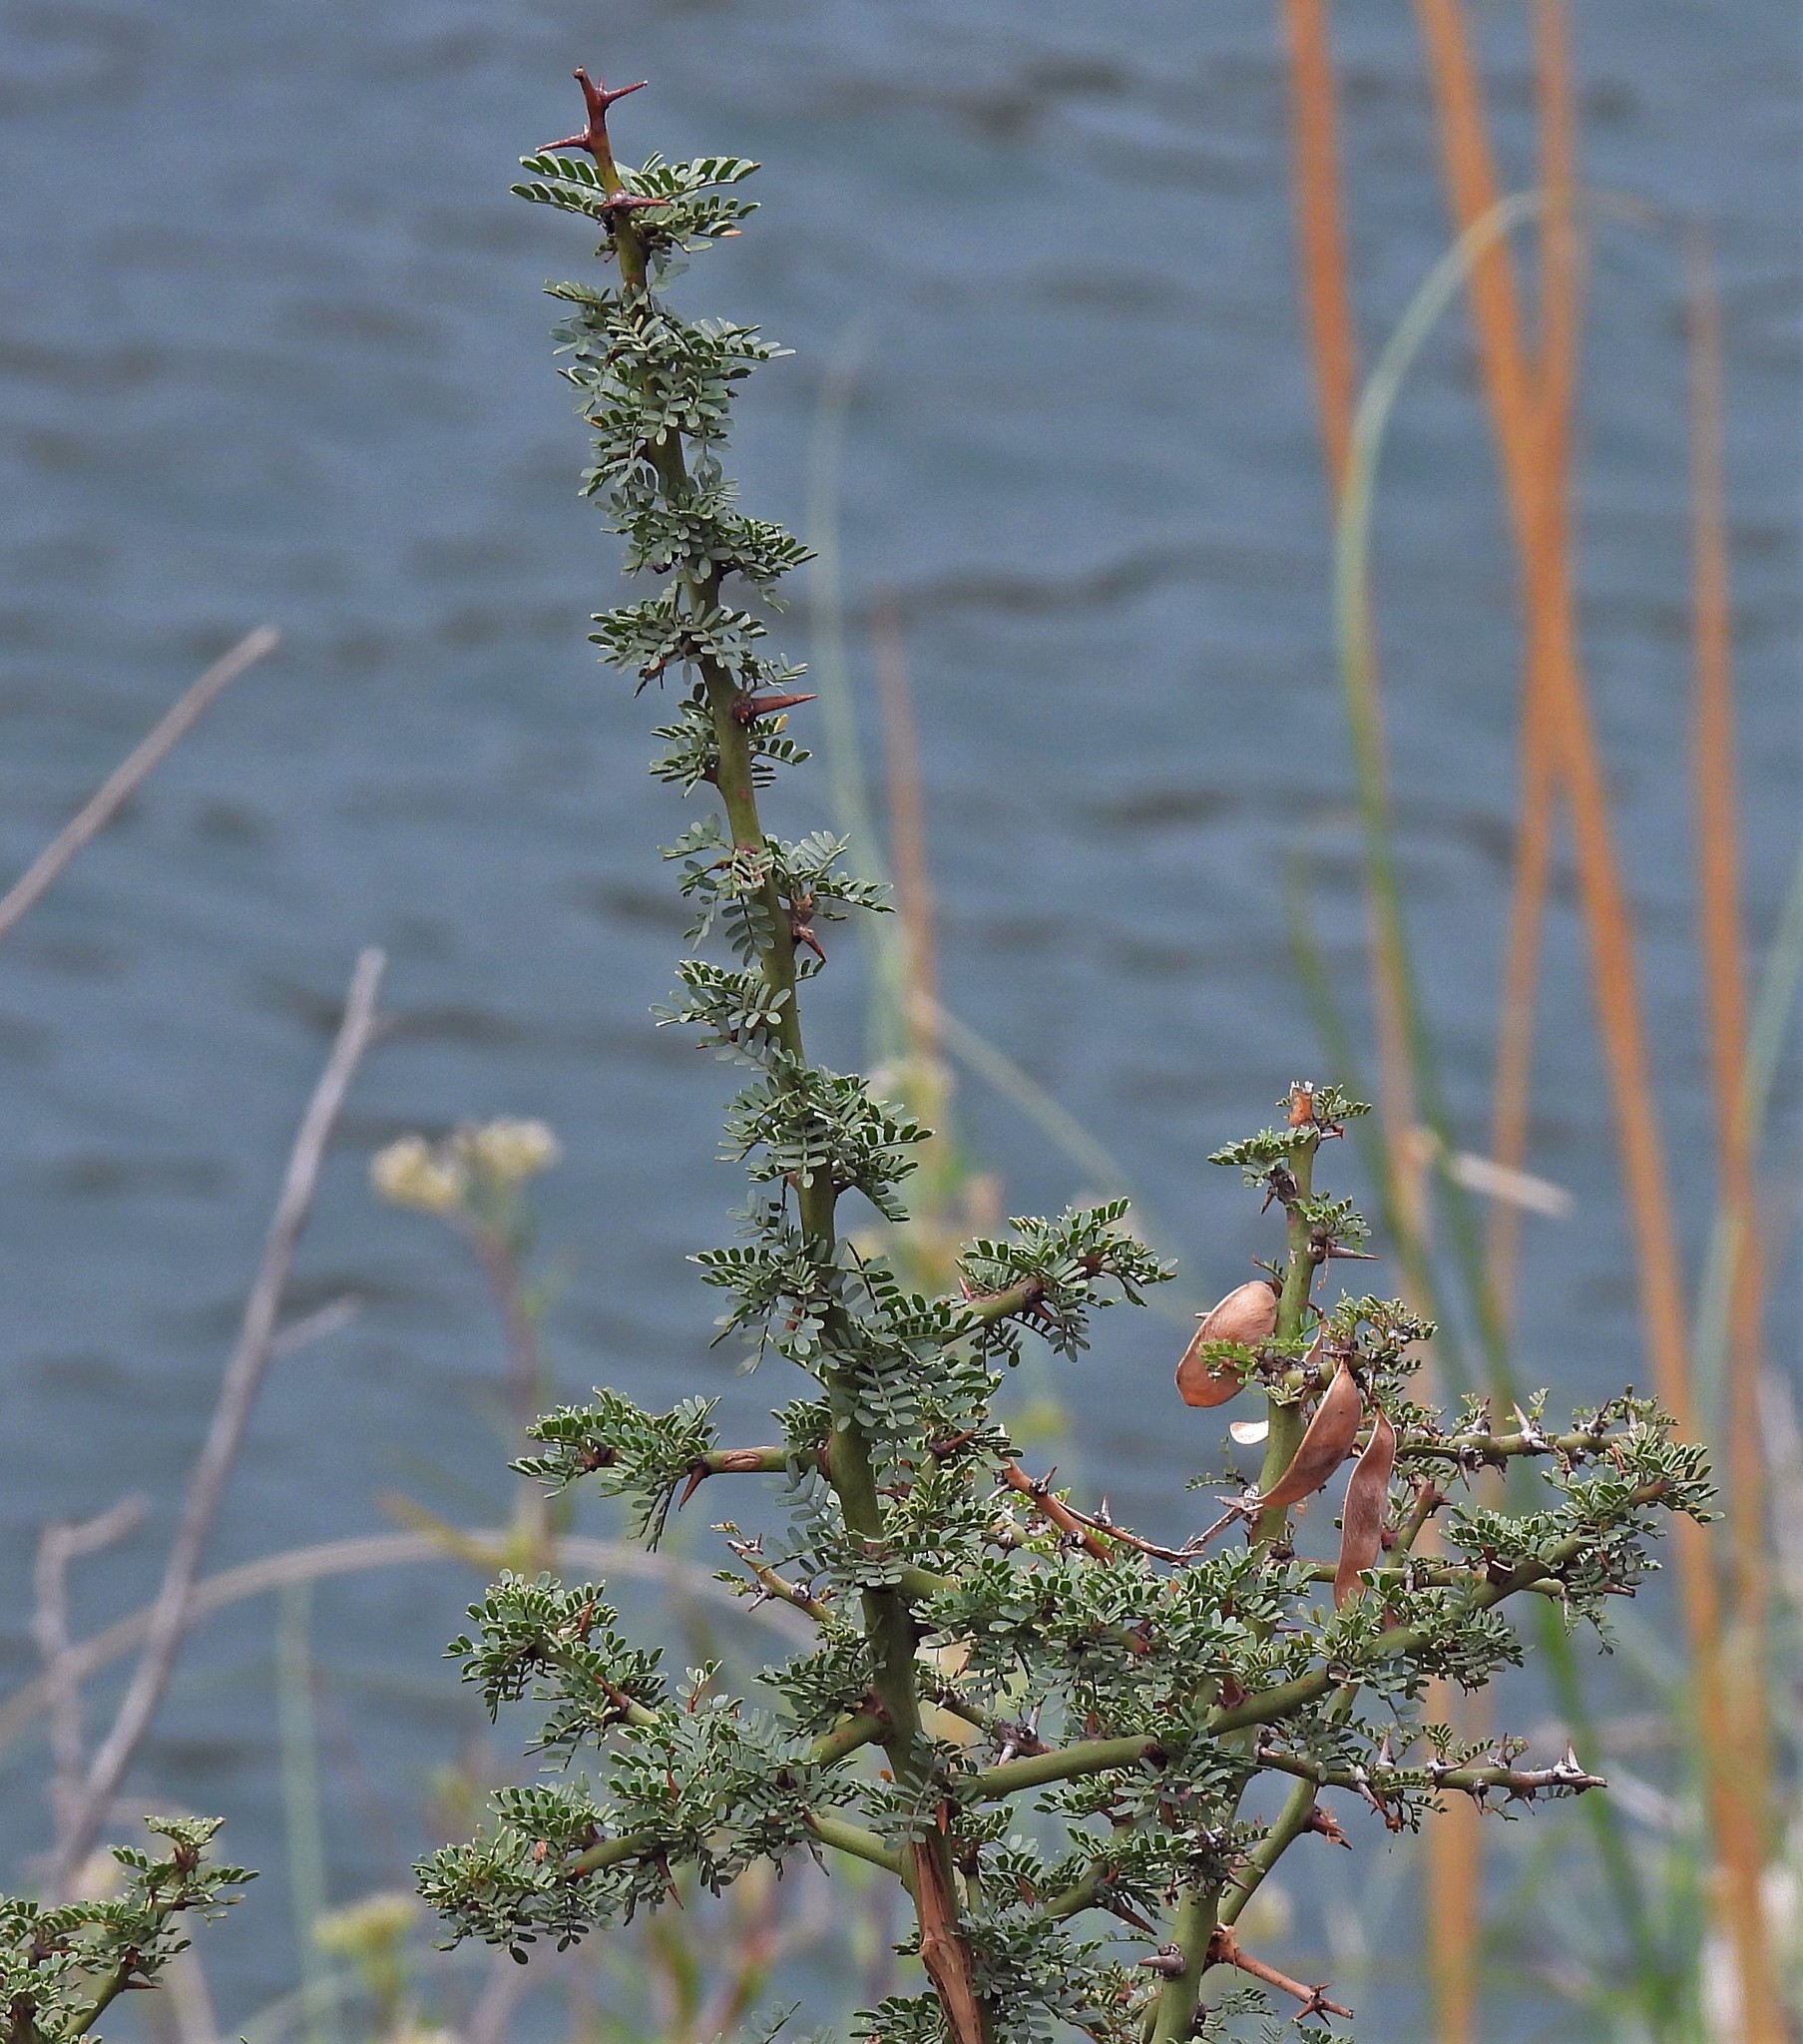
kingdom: Plantae
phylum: Tracheophyta
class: Magnoliopsida
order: Fabales
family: Fabaceae
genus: Parkinsonia
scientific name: Parkinsonia praecox
